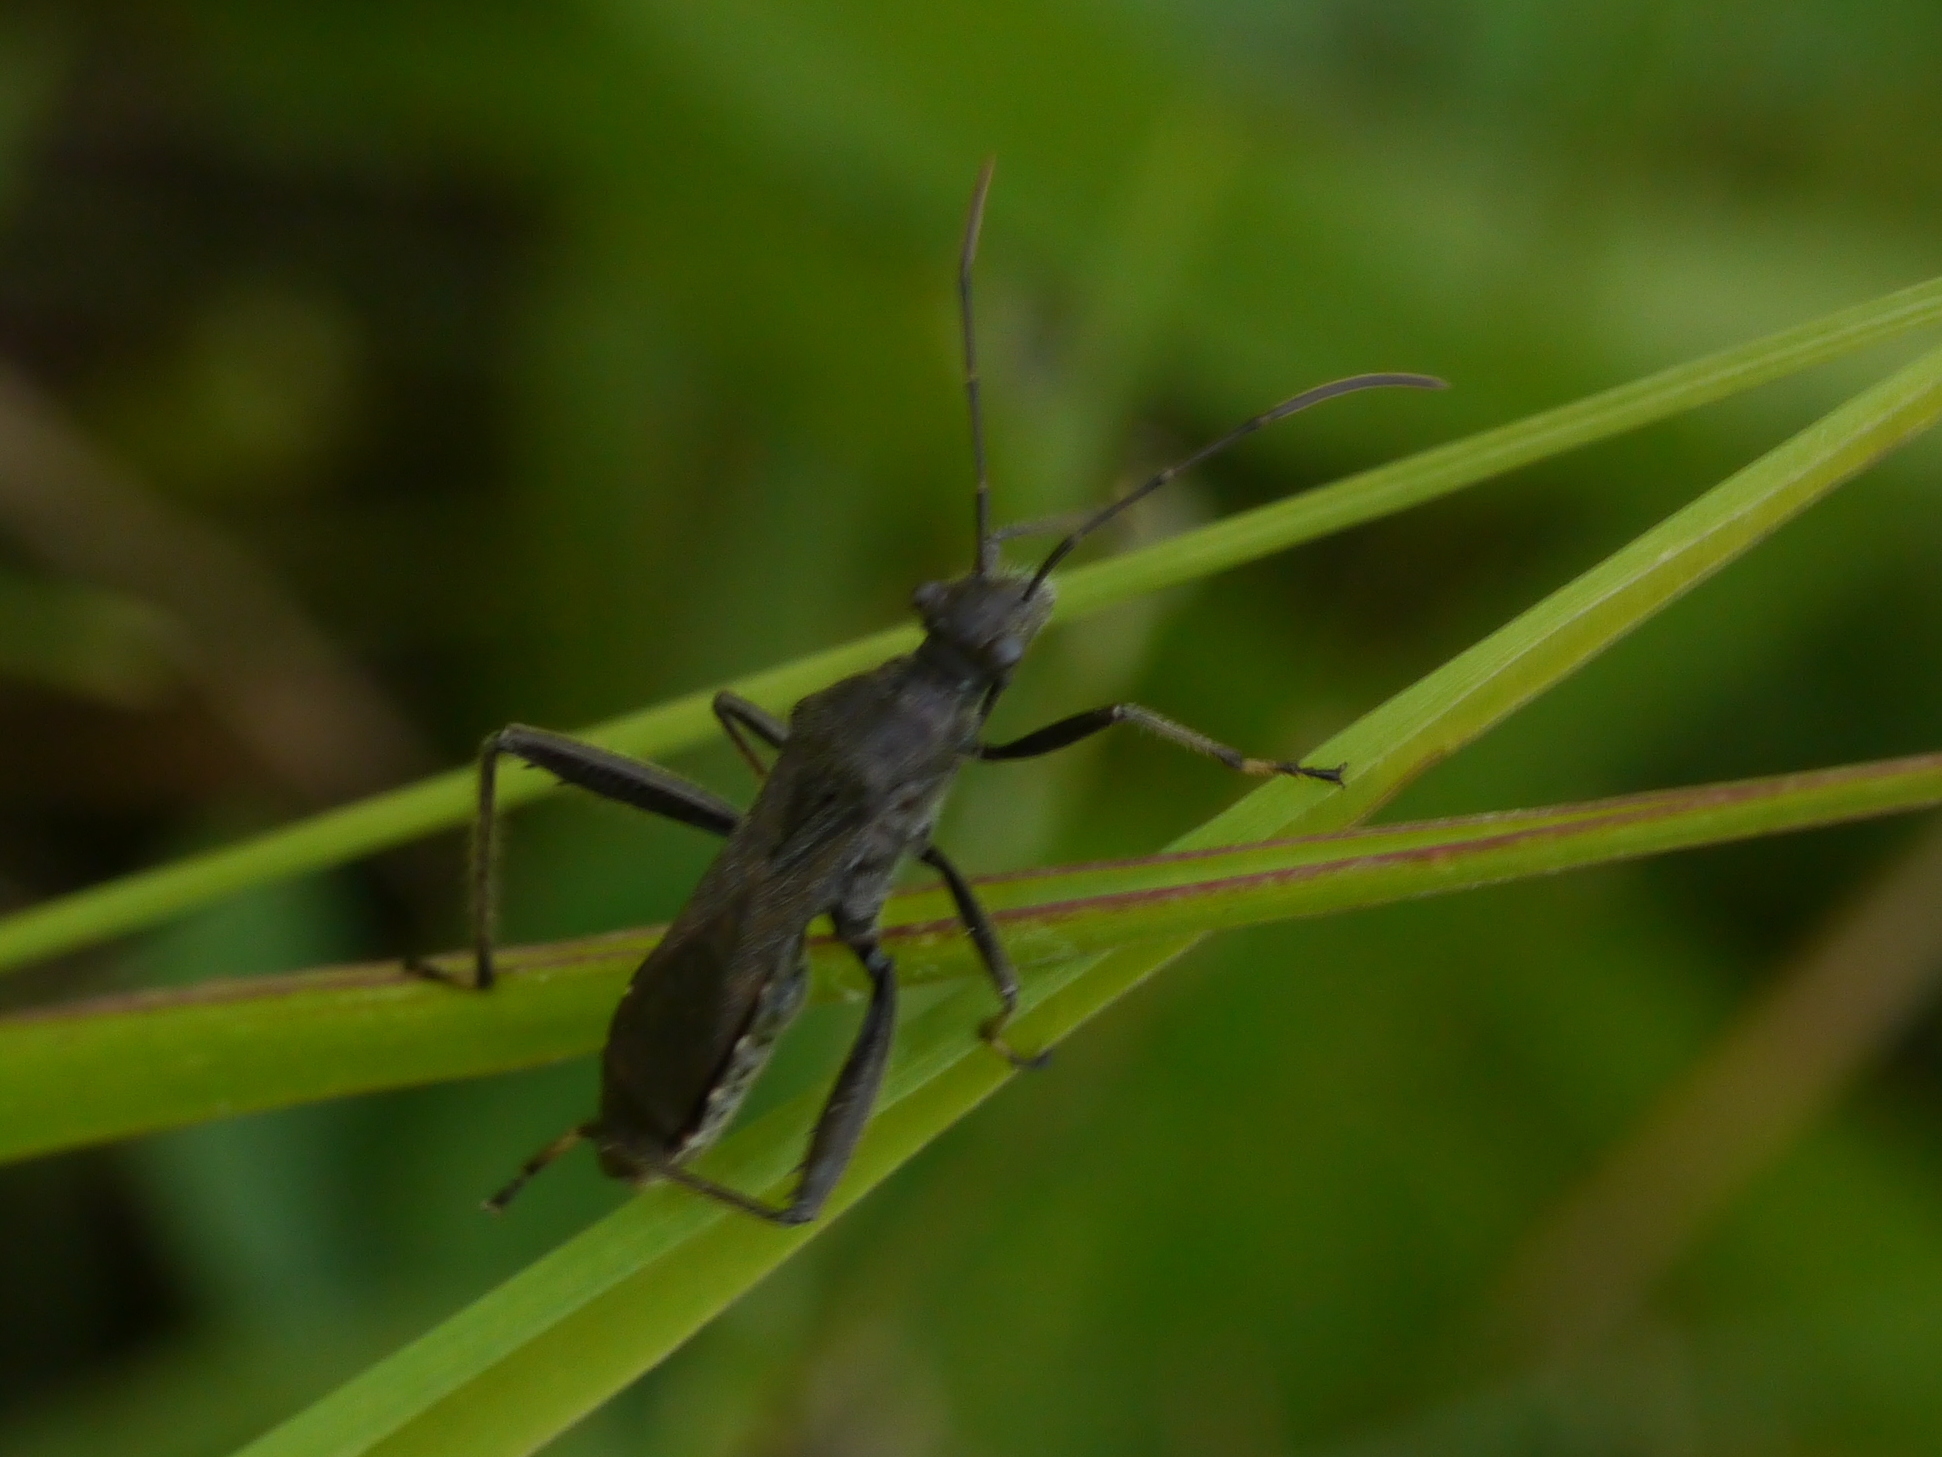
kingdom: Animalia
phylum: Arthropoda
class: Insecta
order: Hemiptera
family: Alydidae
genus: Alydus
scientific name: Alydus eurinus
